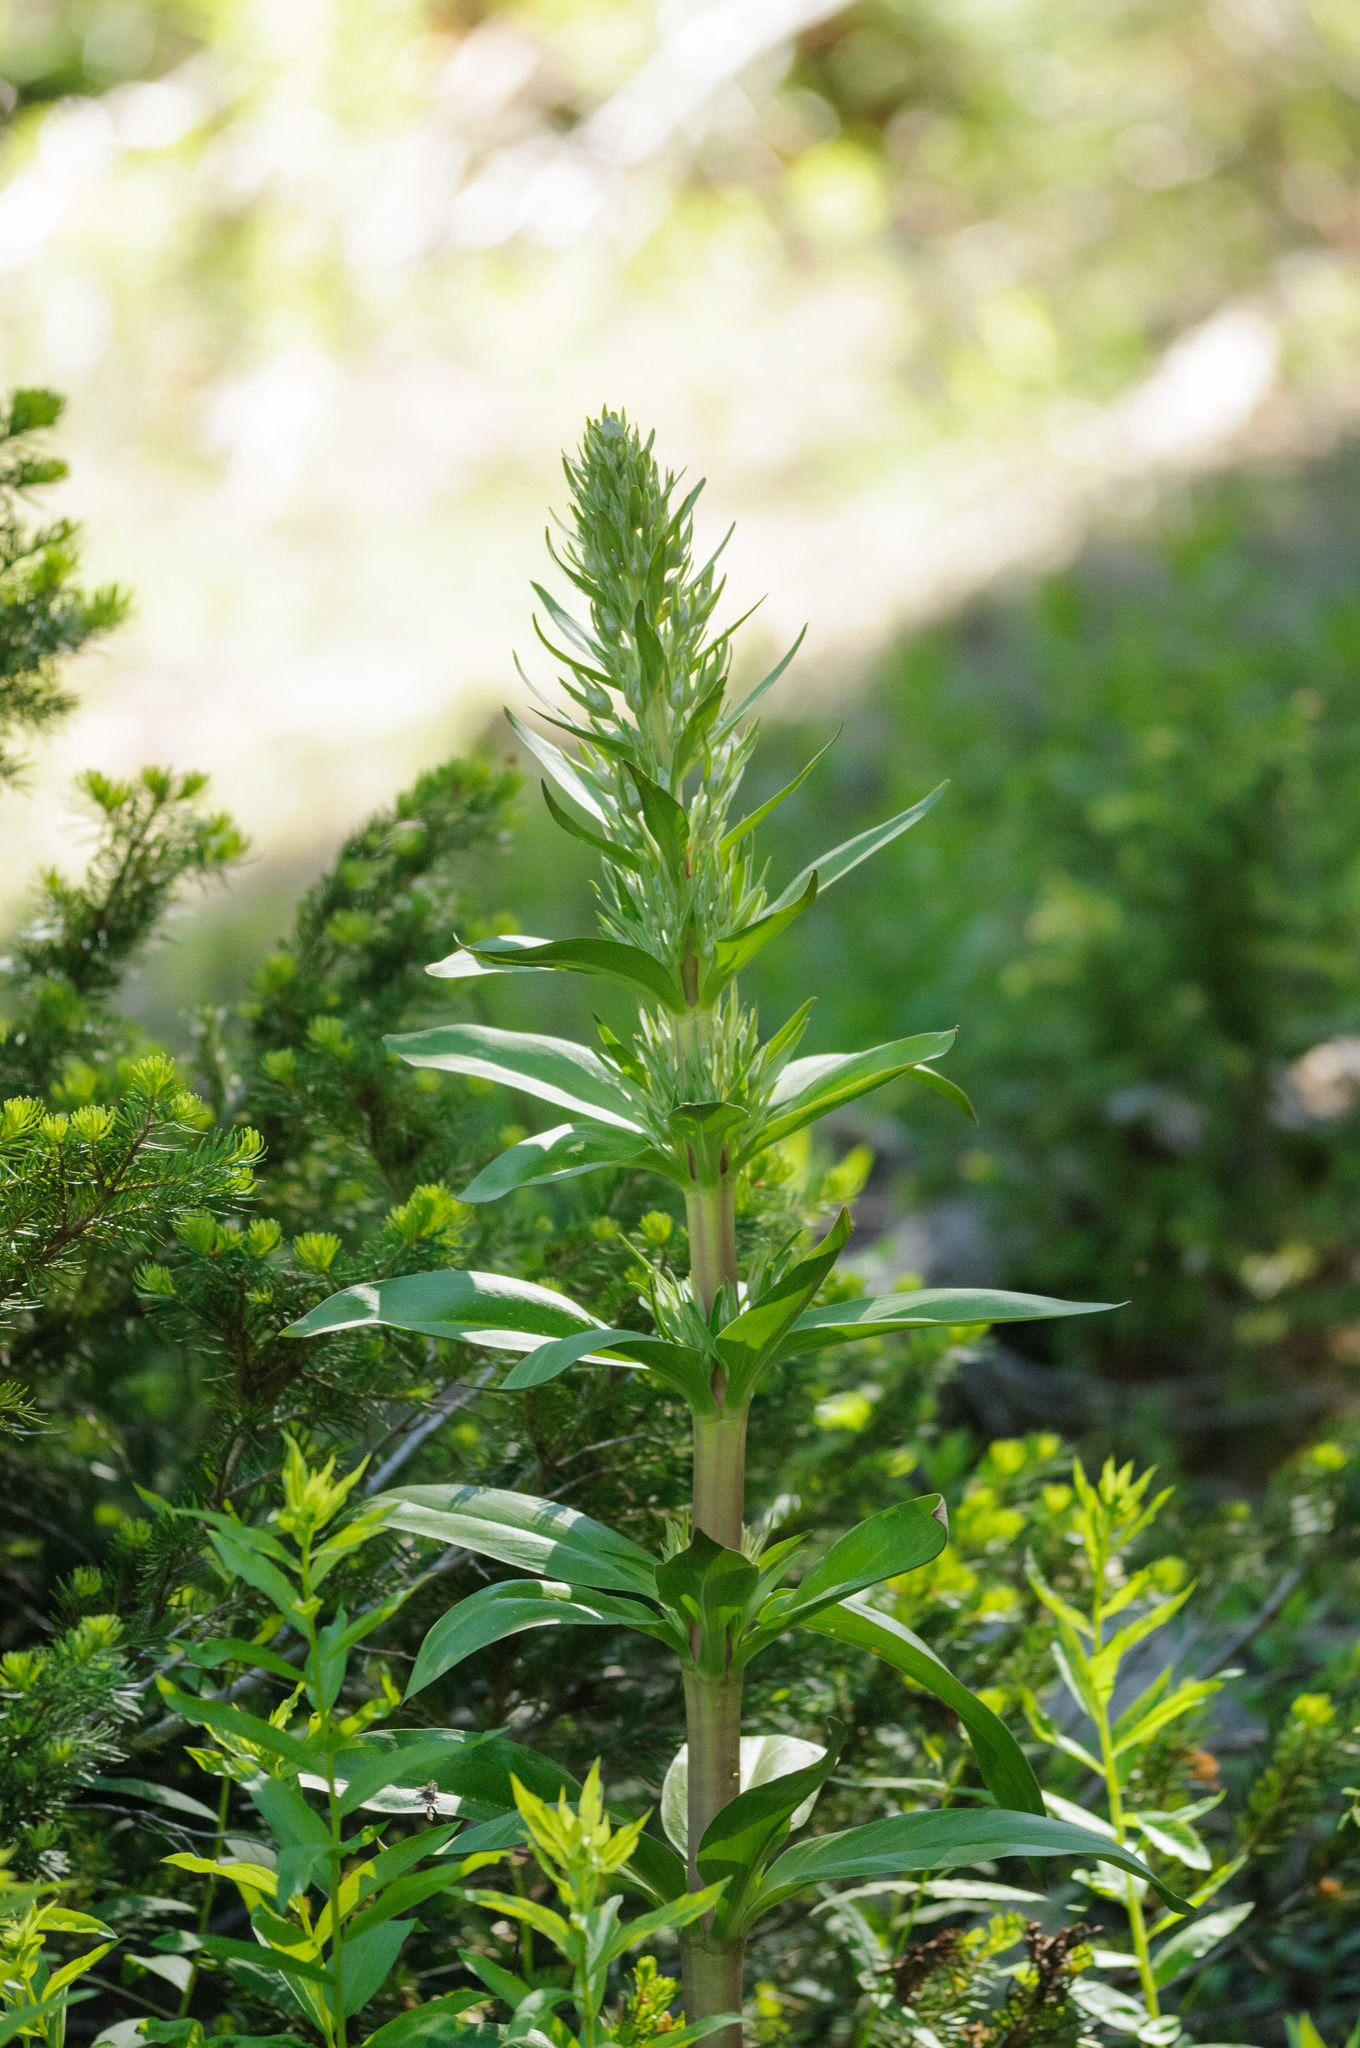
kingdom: Plantae
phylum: Tracheophyta
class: Magnoliopsida
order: Gentianales
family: Gentianaceae
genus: Frasera
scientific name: Frasera speciosa
